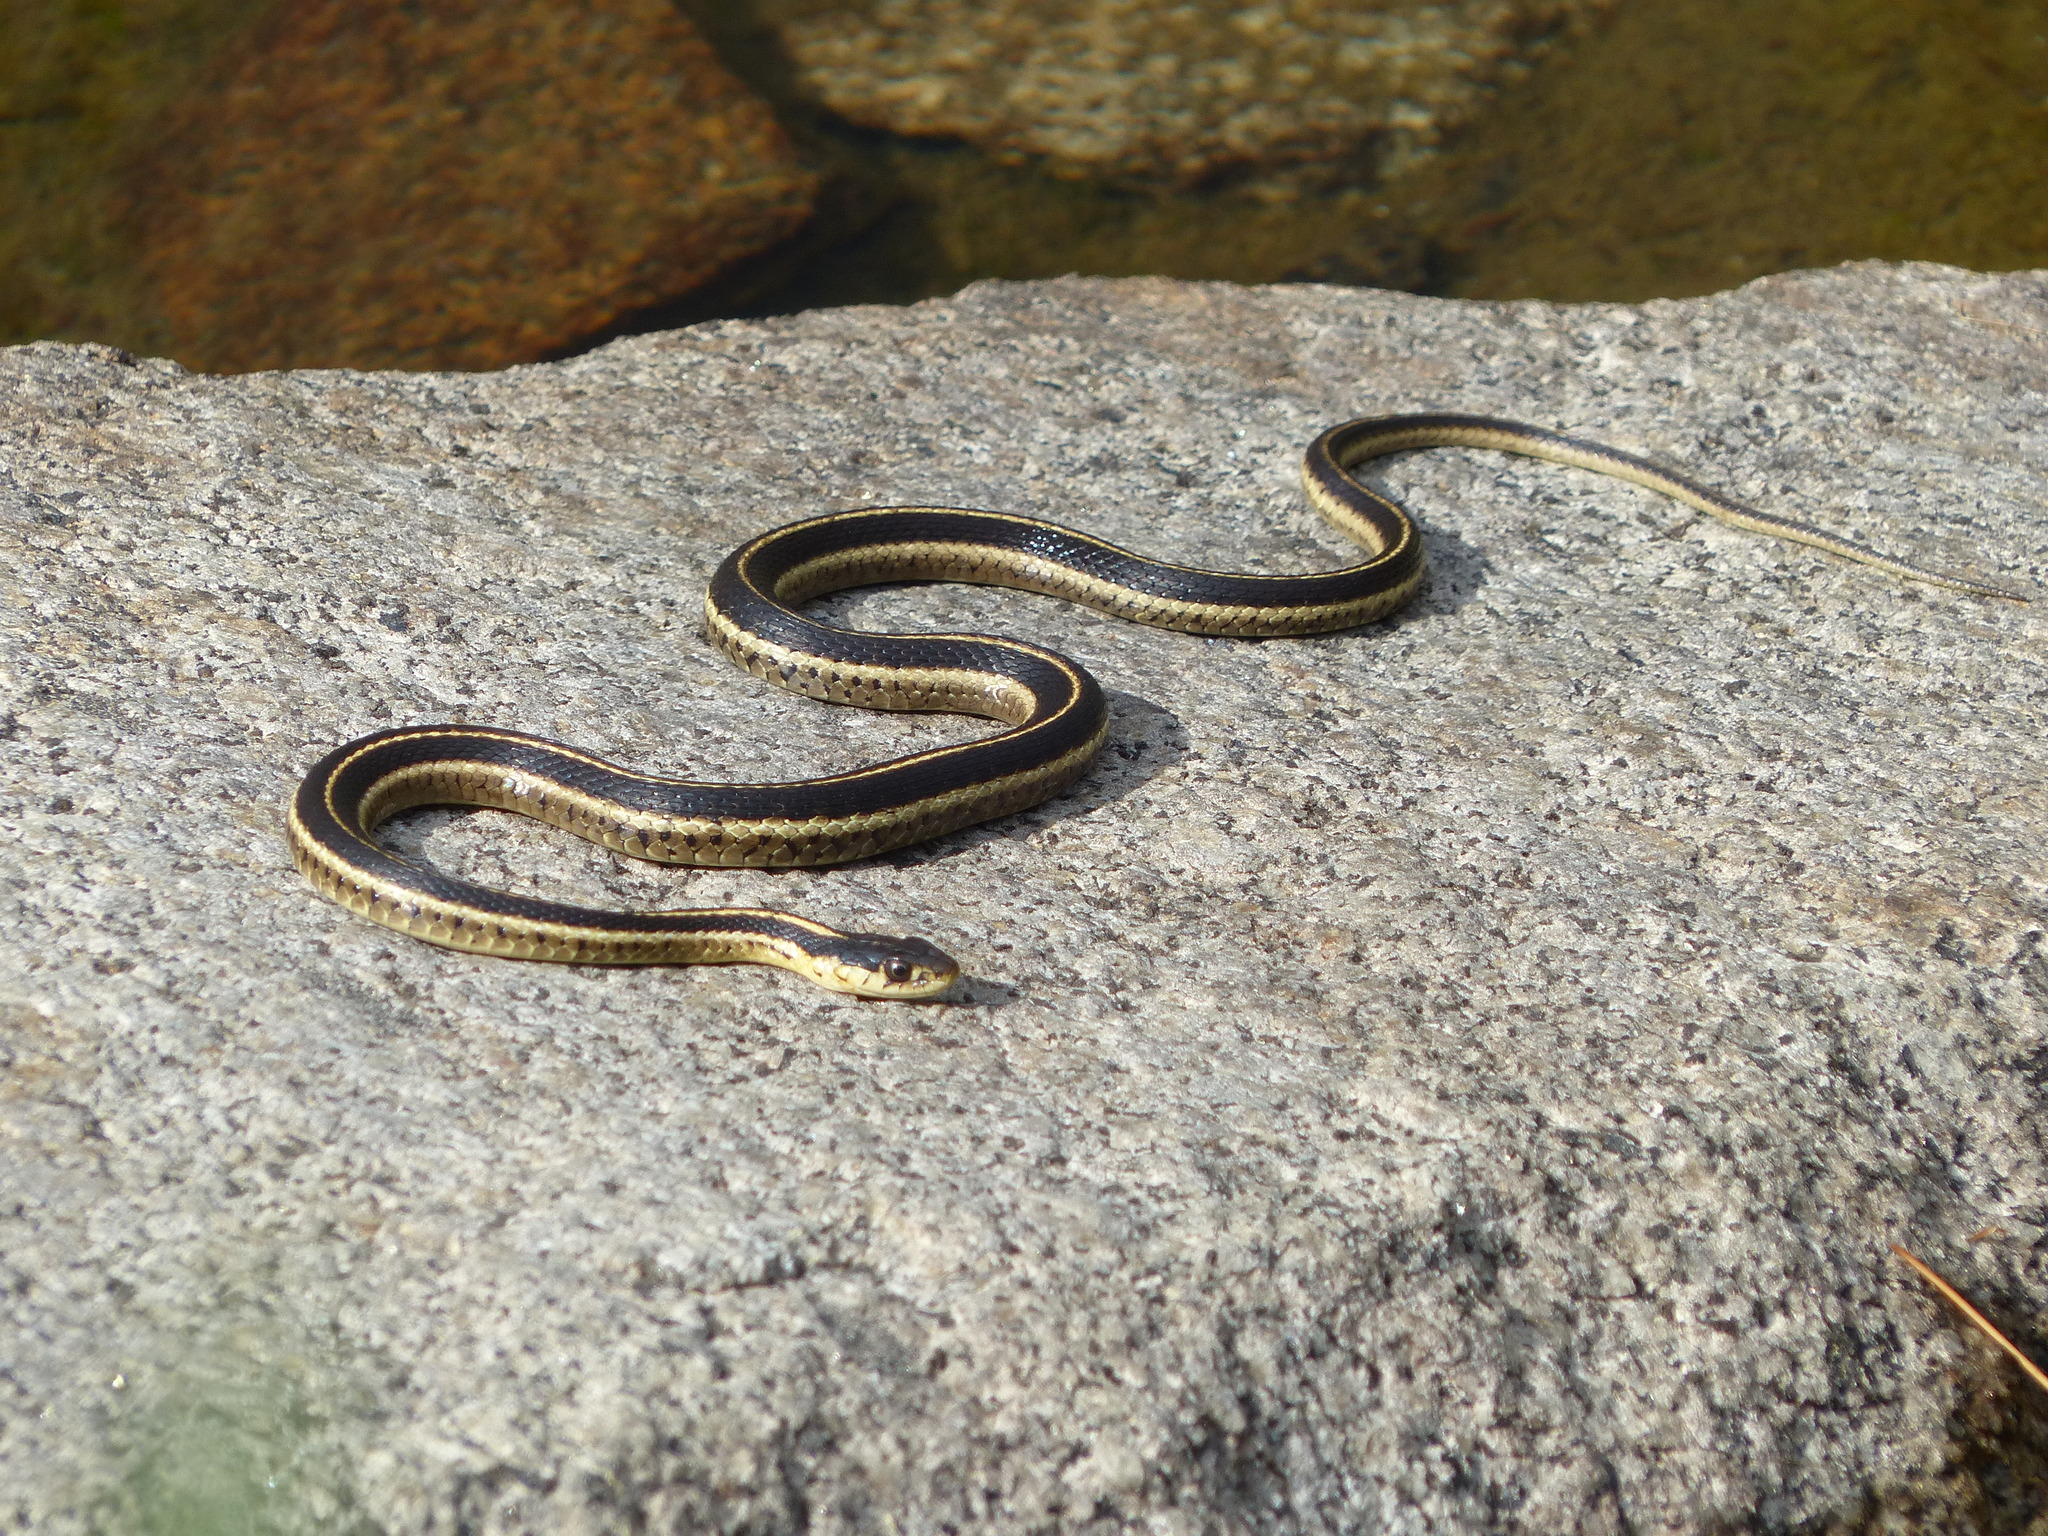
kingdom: Animalia
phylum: Chordata
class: Squamata
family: Colubridae
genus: Thamnophis
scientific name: Thamnophis elegans
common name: Western terrestrial garter snake
